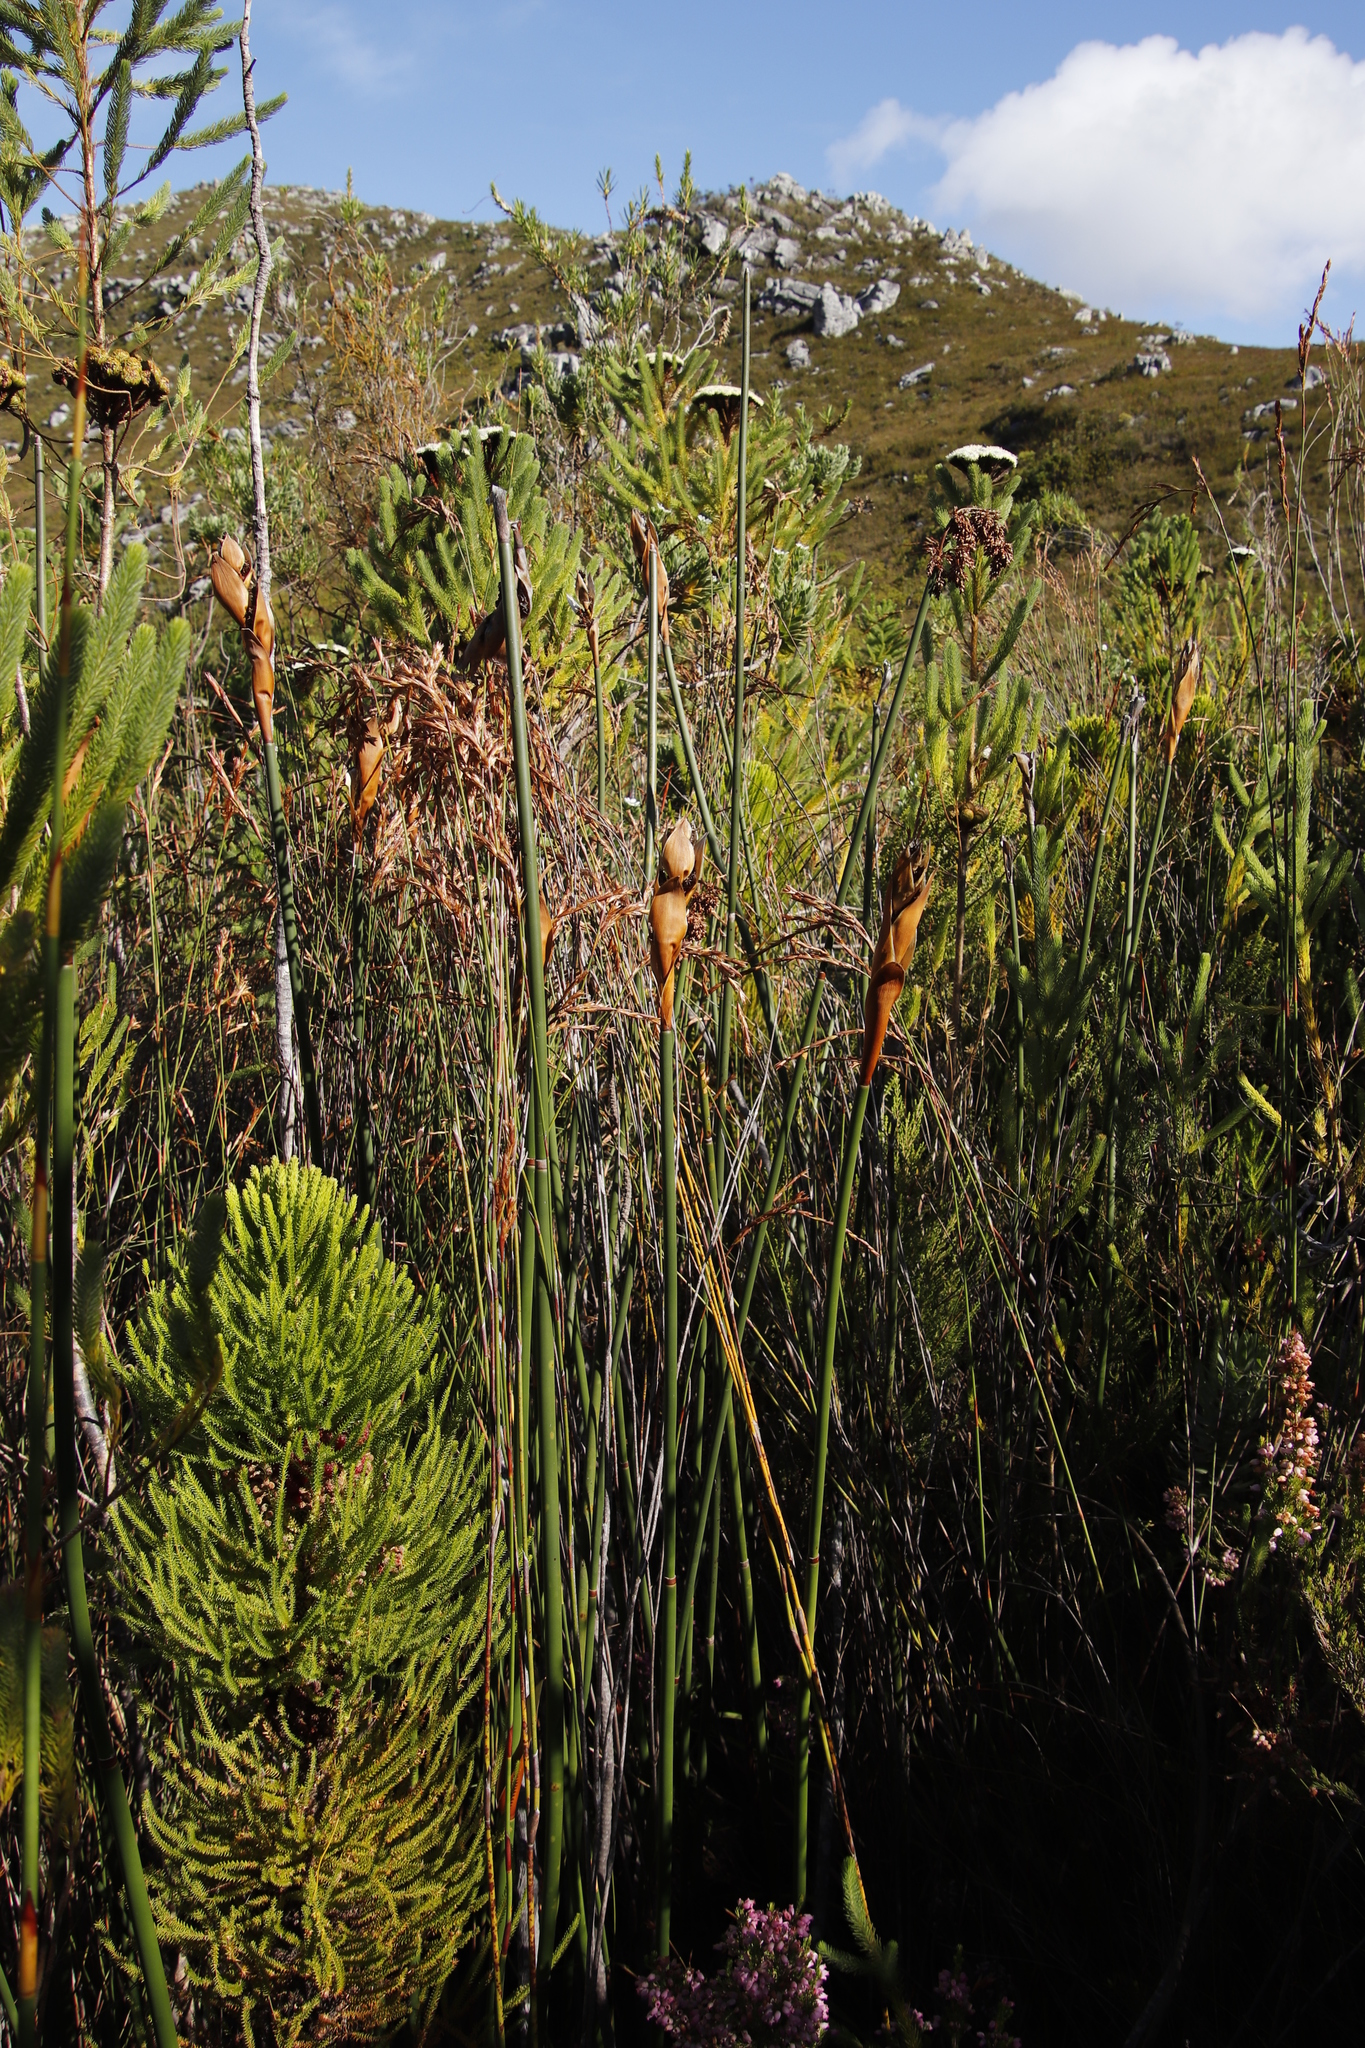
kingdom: Plantae
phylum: Tracheophyta
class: Magnoliopsida
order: Bruniales
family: Bruniaceae
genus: Berzelia
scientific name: Berzelia albiflora
